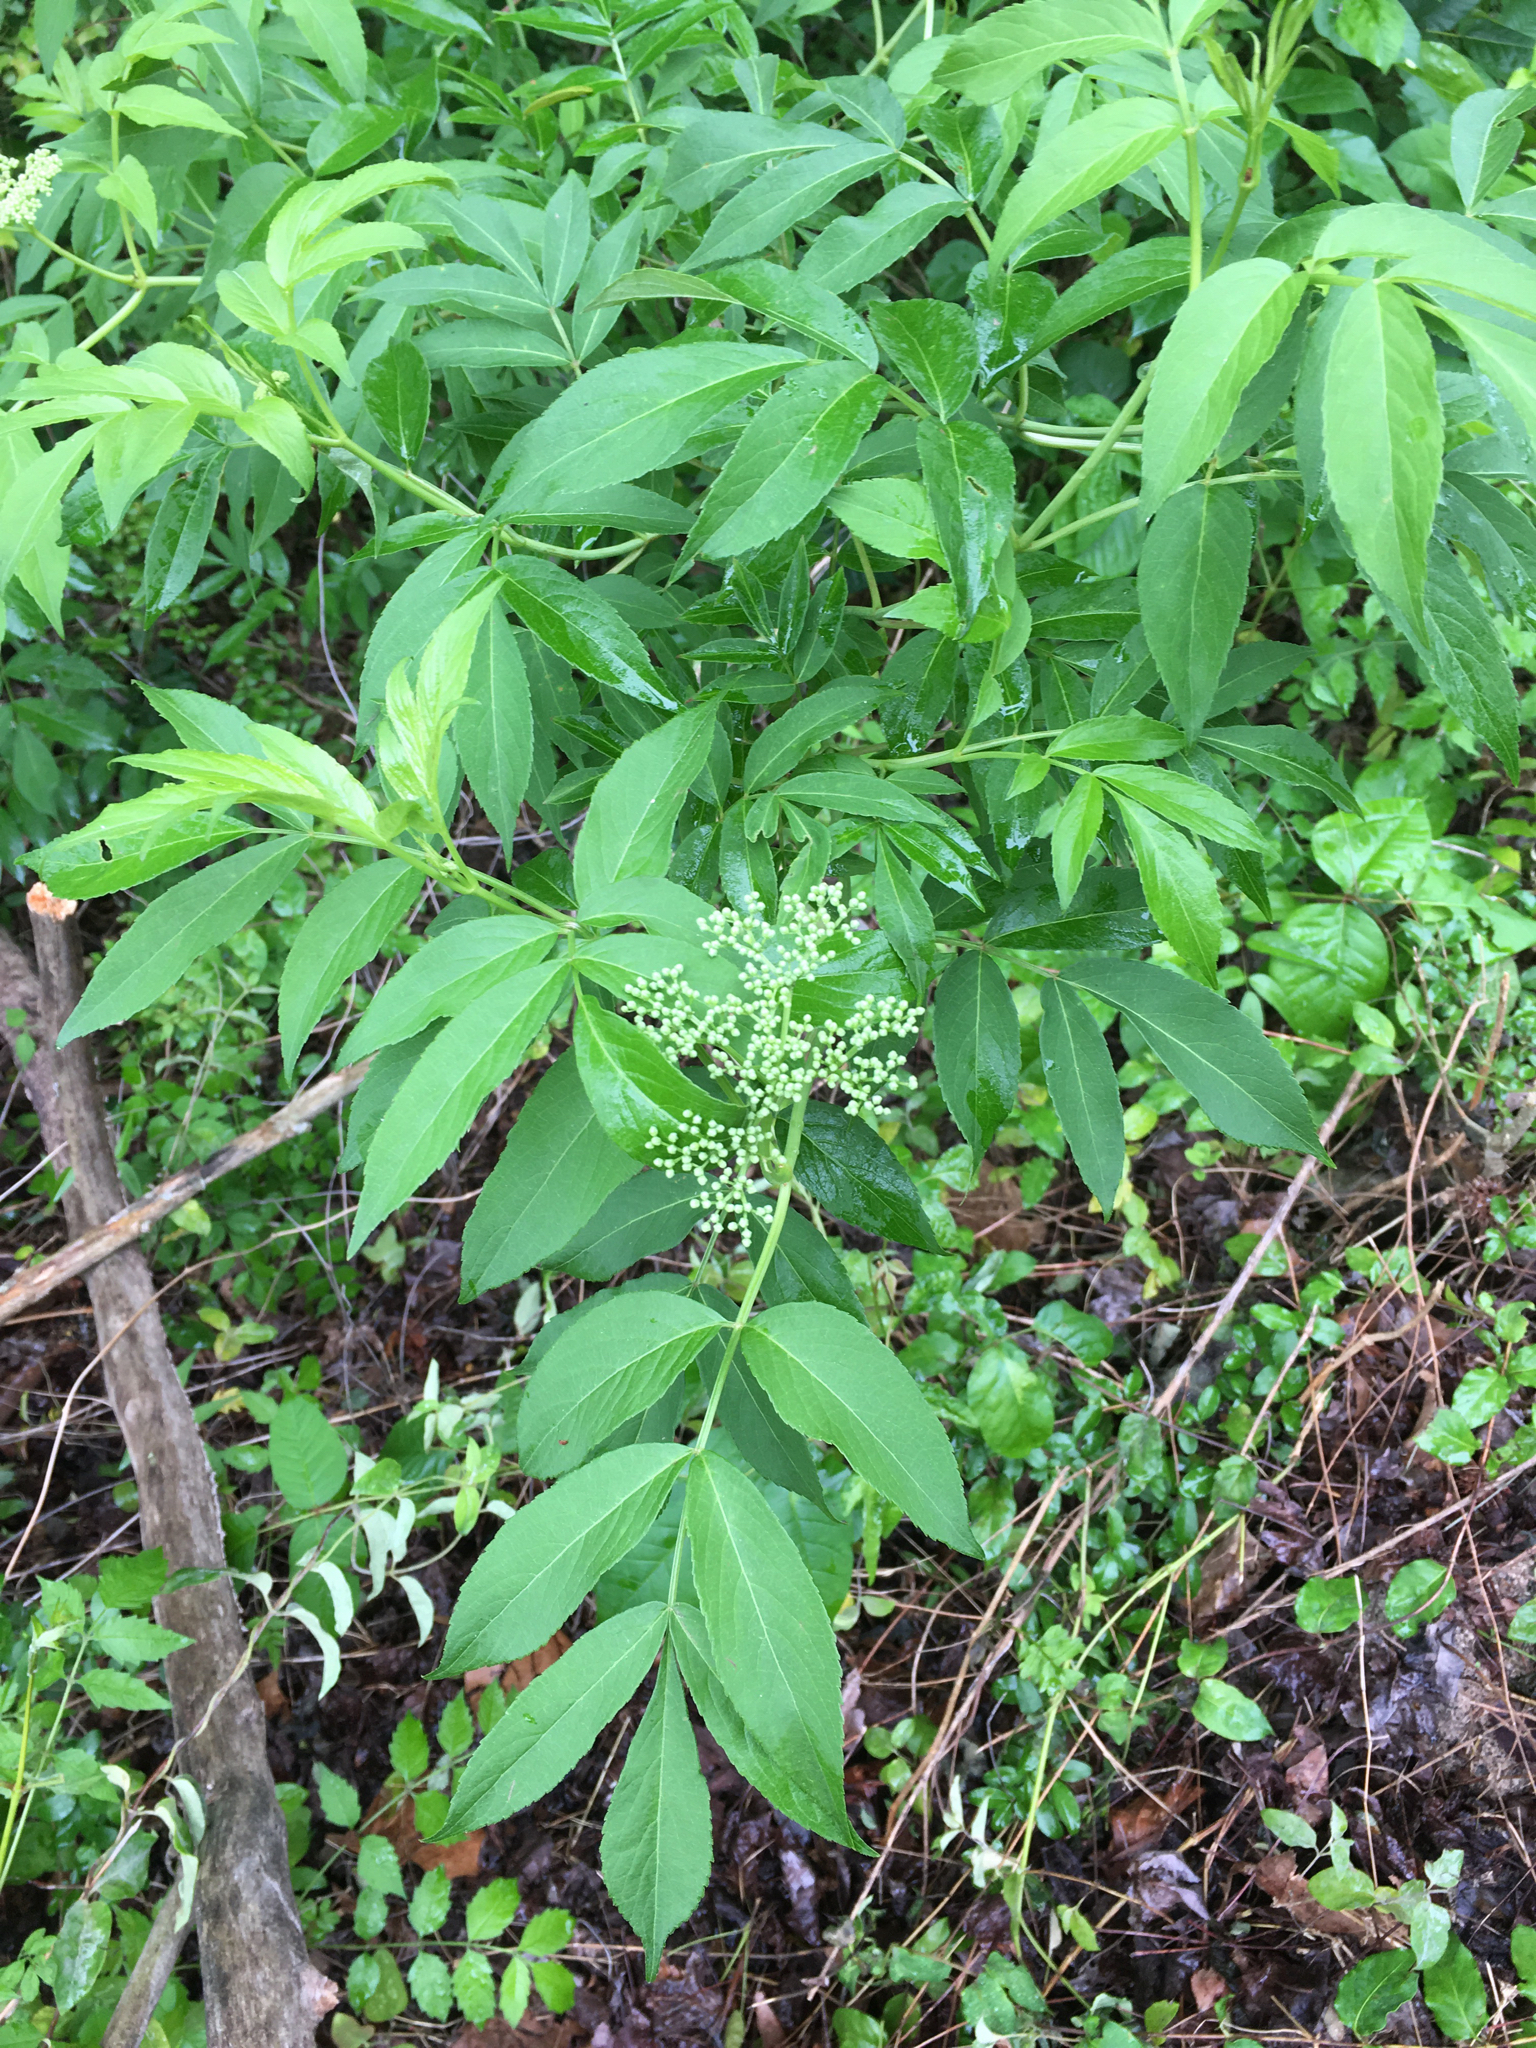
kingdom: Plantae
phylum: Tracheophyta
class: Magnoliopsida
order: Dipsacales
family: Viburnaceae
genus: Sambucus
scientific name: Sambucus canadensis
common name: American elder
